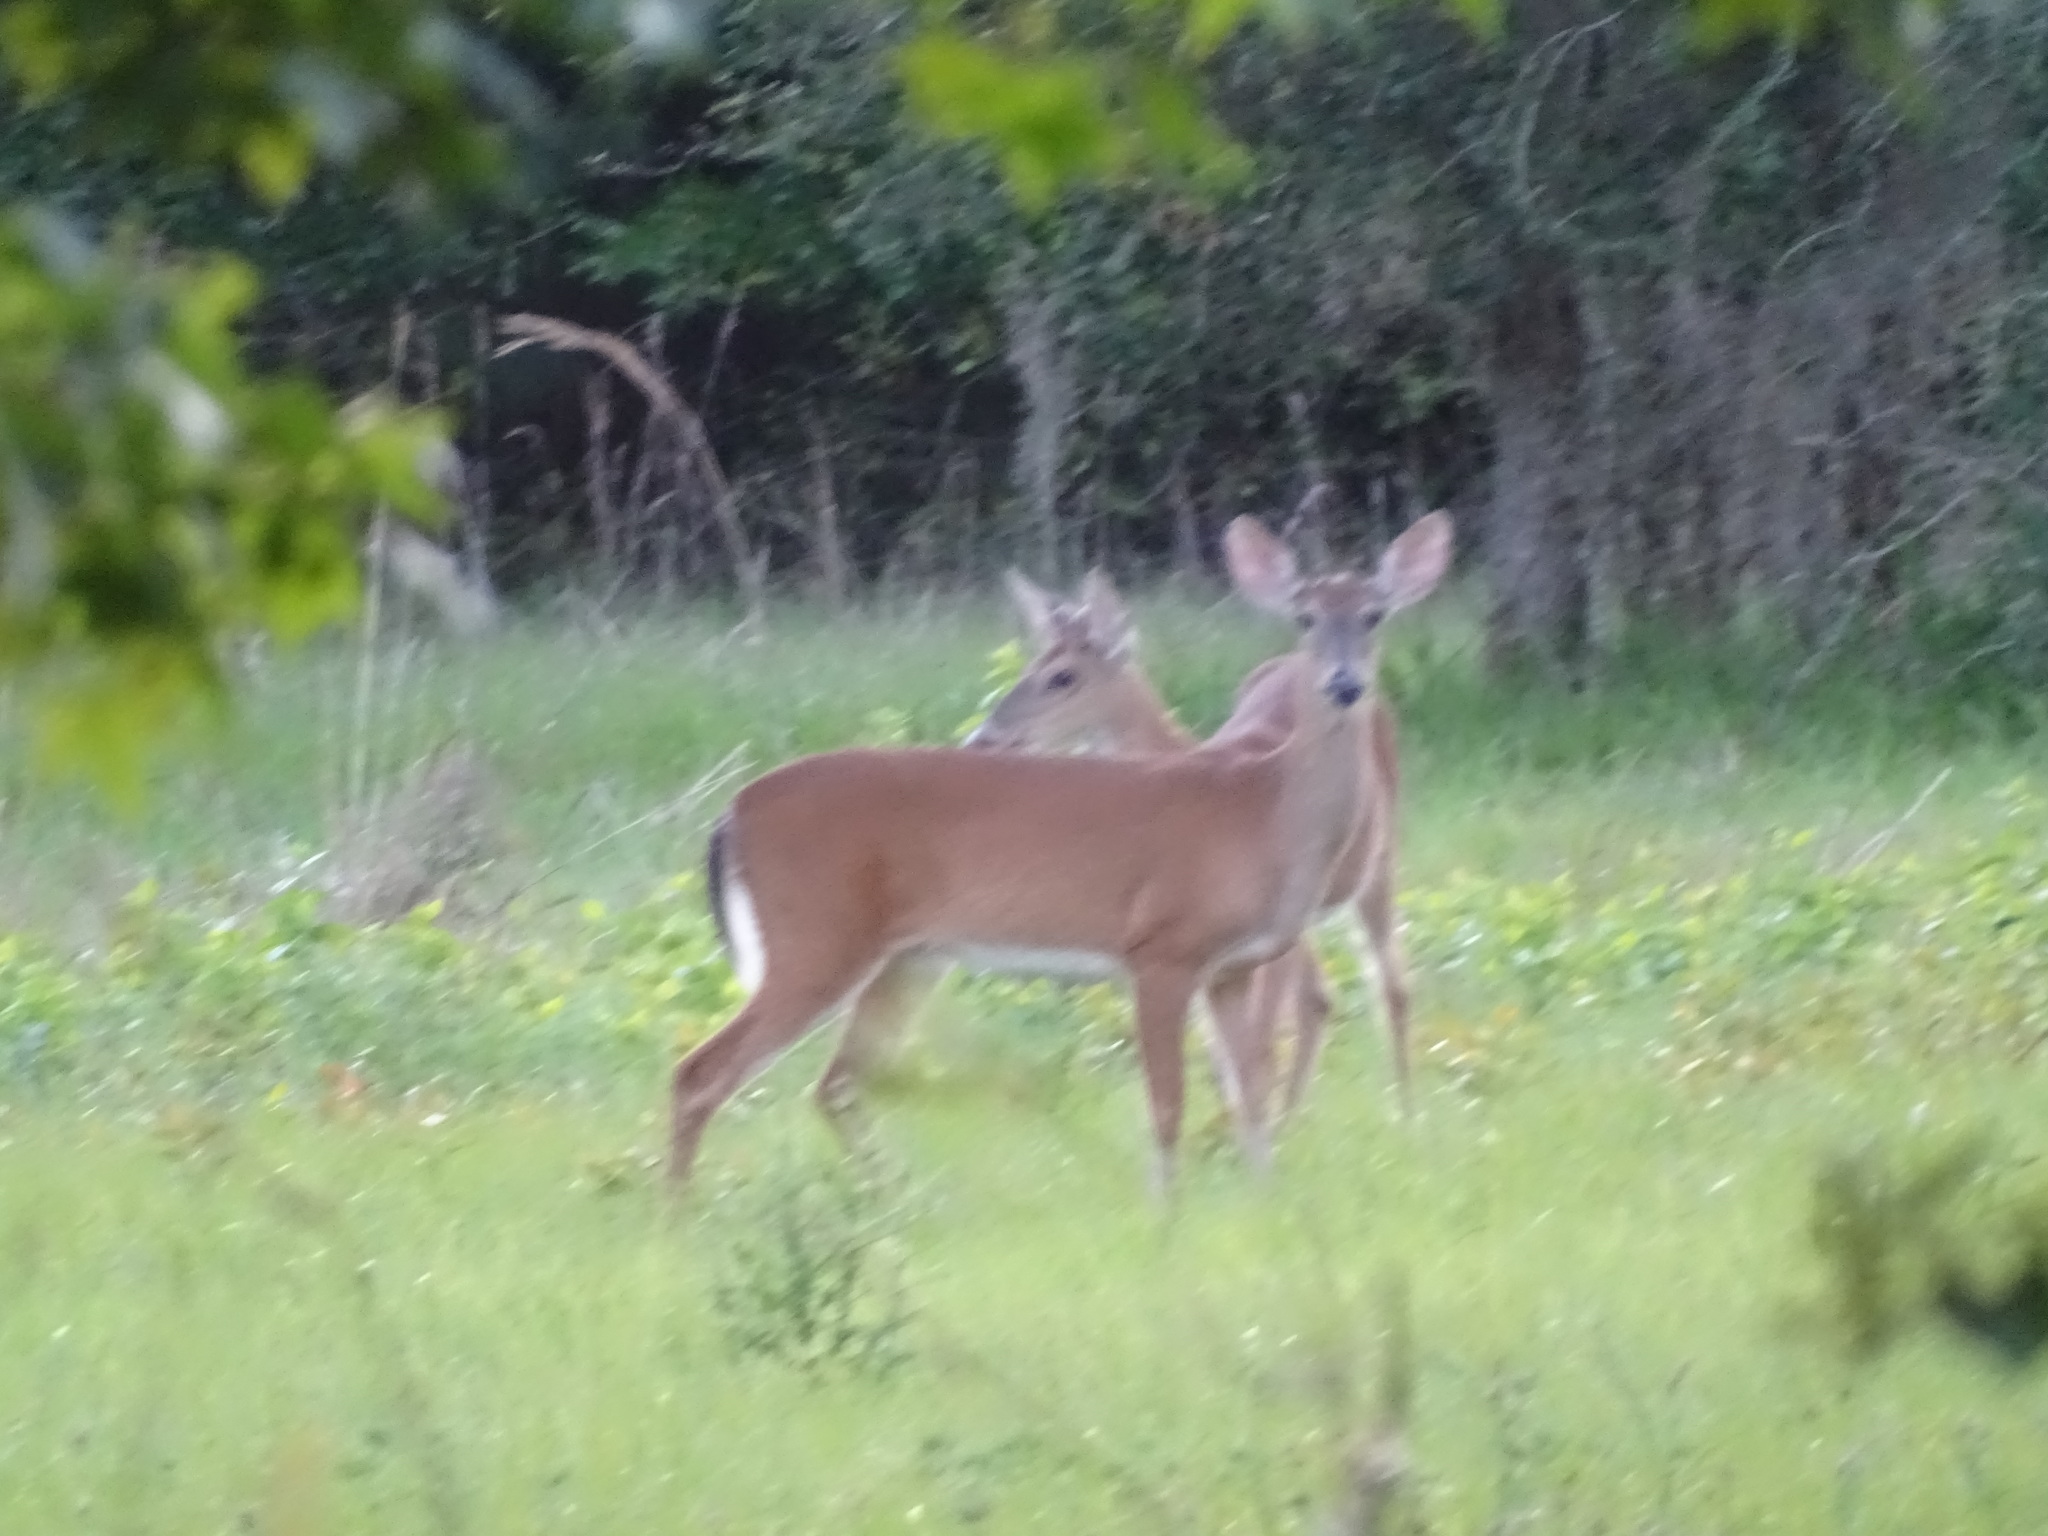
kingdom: Animalia
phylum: Chordata
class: Mammalia
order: Artiodactyla
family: Cervidae
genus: Odocoileus
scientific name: Odocoileus virginianus
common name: White-tailed deer
